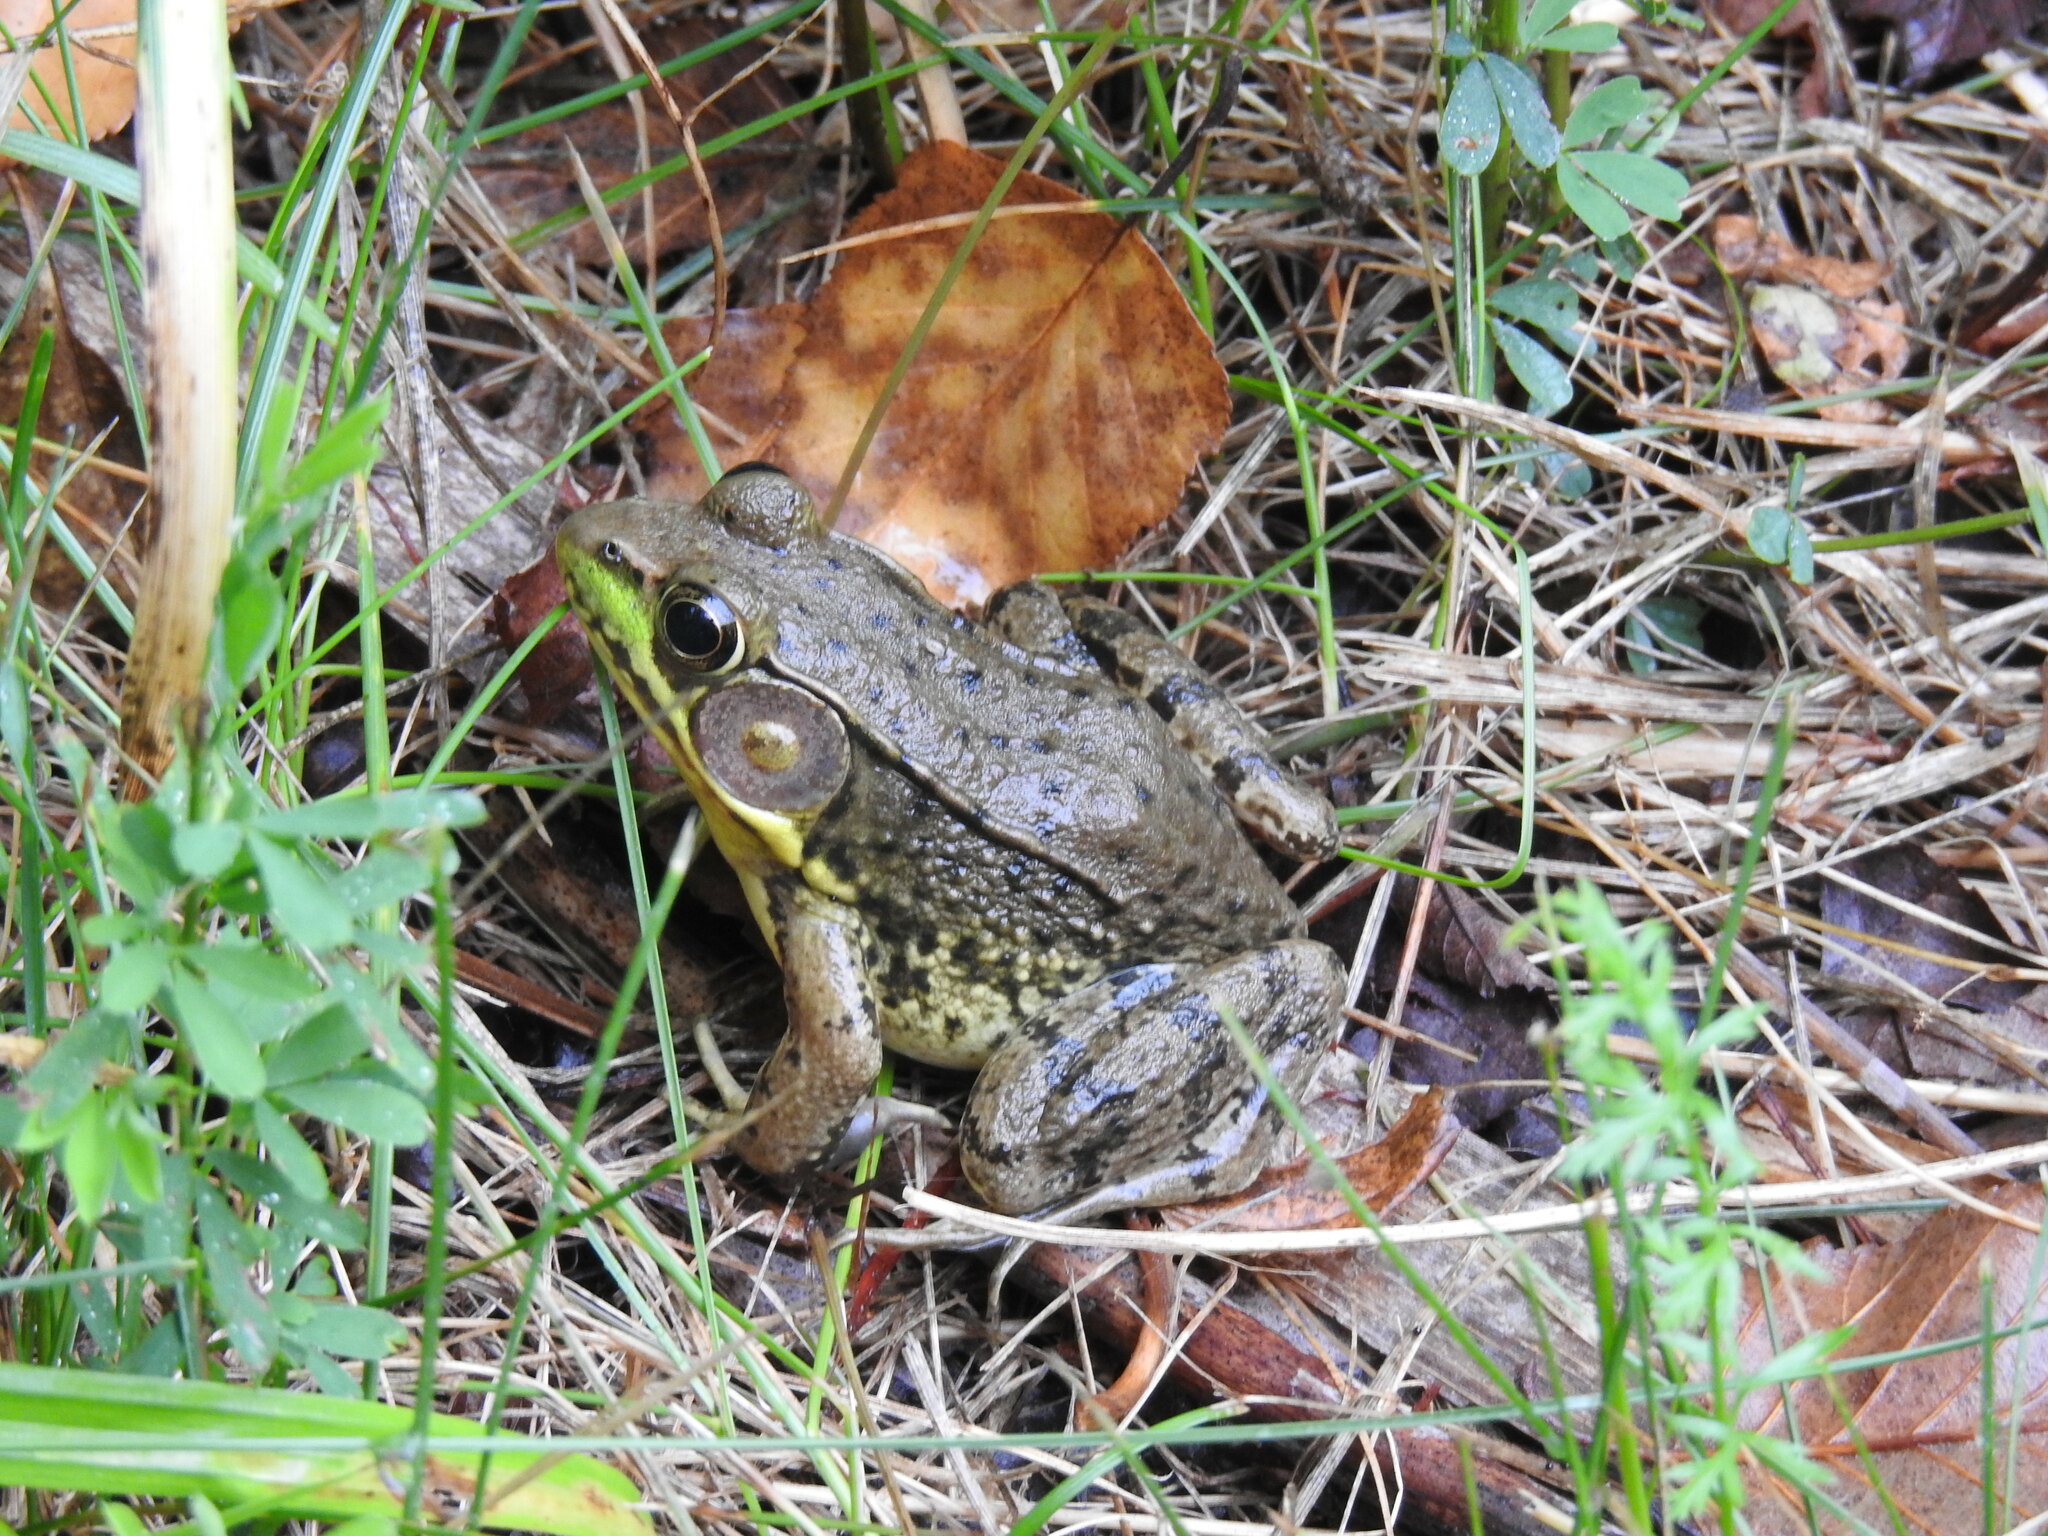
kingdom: Animalia
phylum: Chordata
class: Amphibia
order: Anura
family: Ranidae
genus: Lithobates
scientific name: Lithobates clamitans
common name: Green frog
